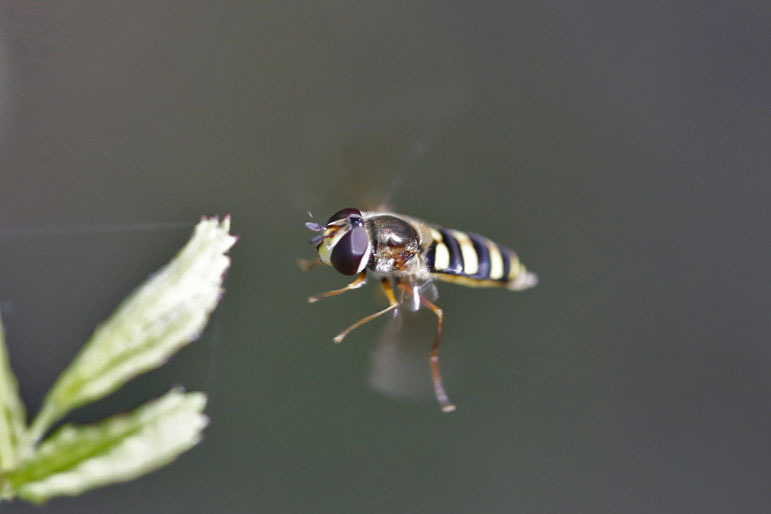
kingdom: Animalia
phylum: Arthropoda
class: Insecta
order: Diptera
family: Syrphidae
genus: Eupeodes
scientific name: Eupeodes
